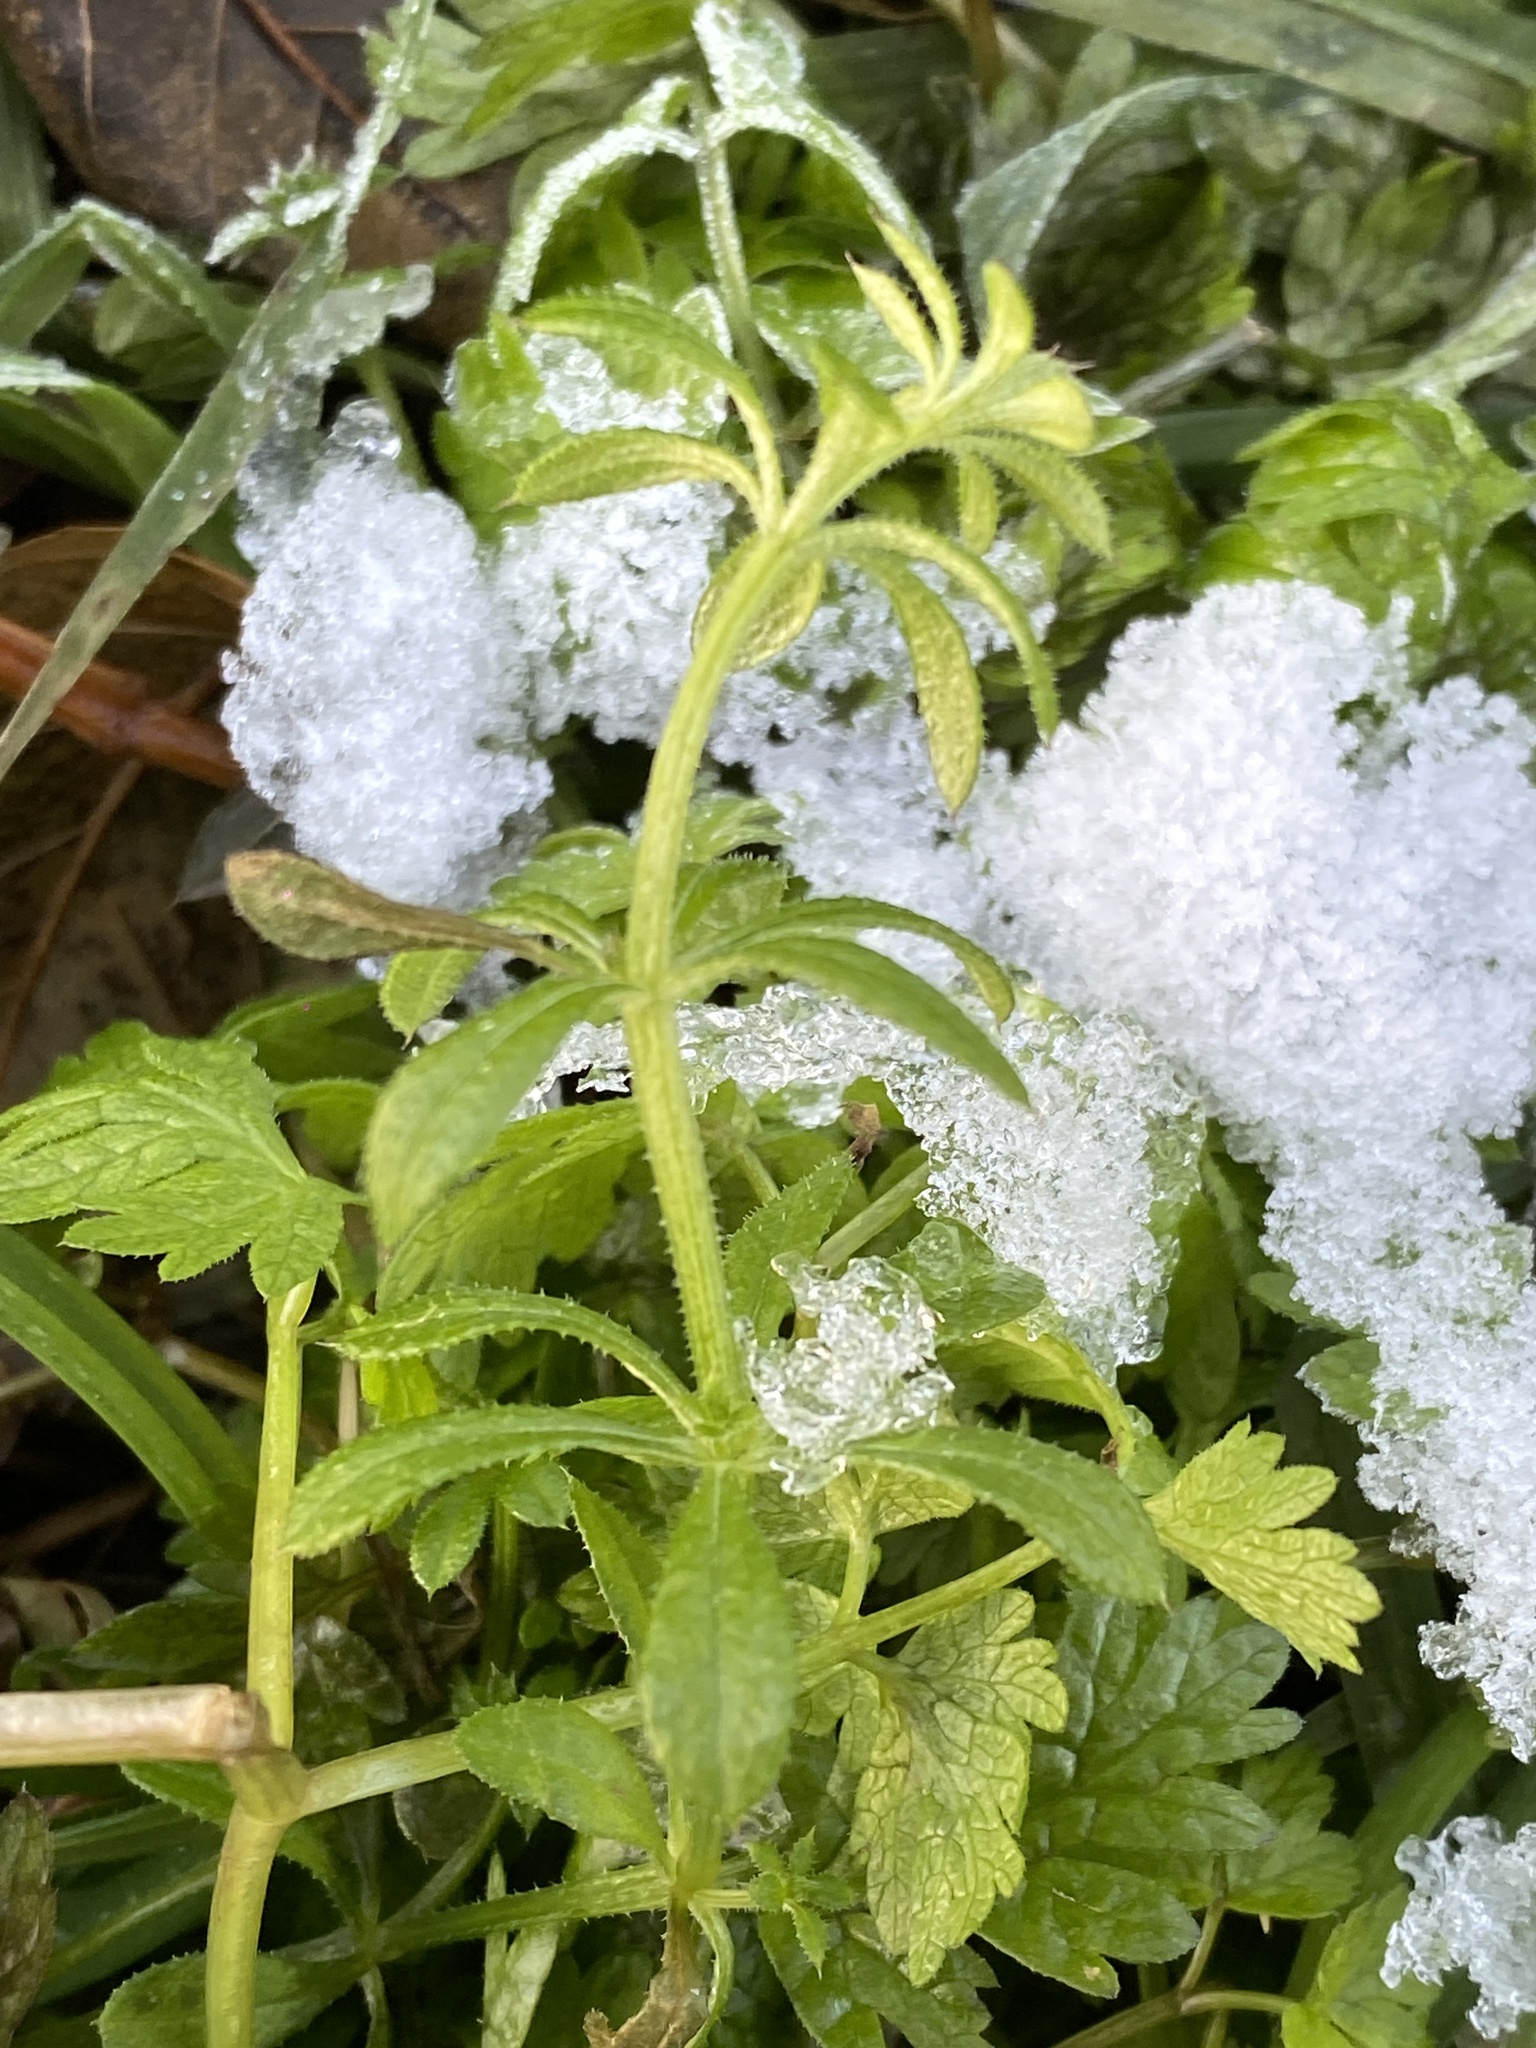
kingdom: Plantae
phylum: Tracheophyta
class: Magnoliopsida
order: Gentianales
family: Rubiaceae
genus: Galium
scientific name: Galium aparine
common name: Cleavers
